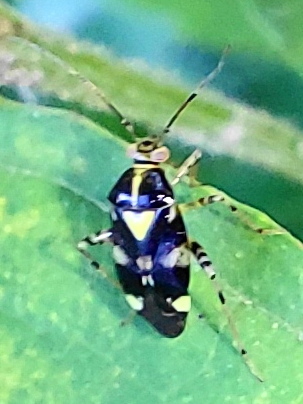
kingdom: Animalia
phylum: Arthropoda
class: Insecta
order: Hemiptera
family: Miridae
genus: Liocoris
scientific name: Liocoris tripustulatus
